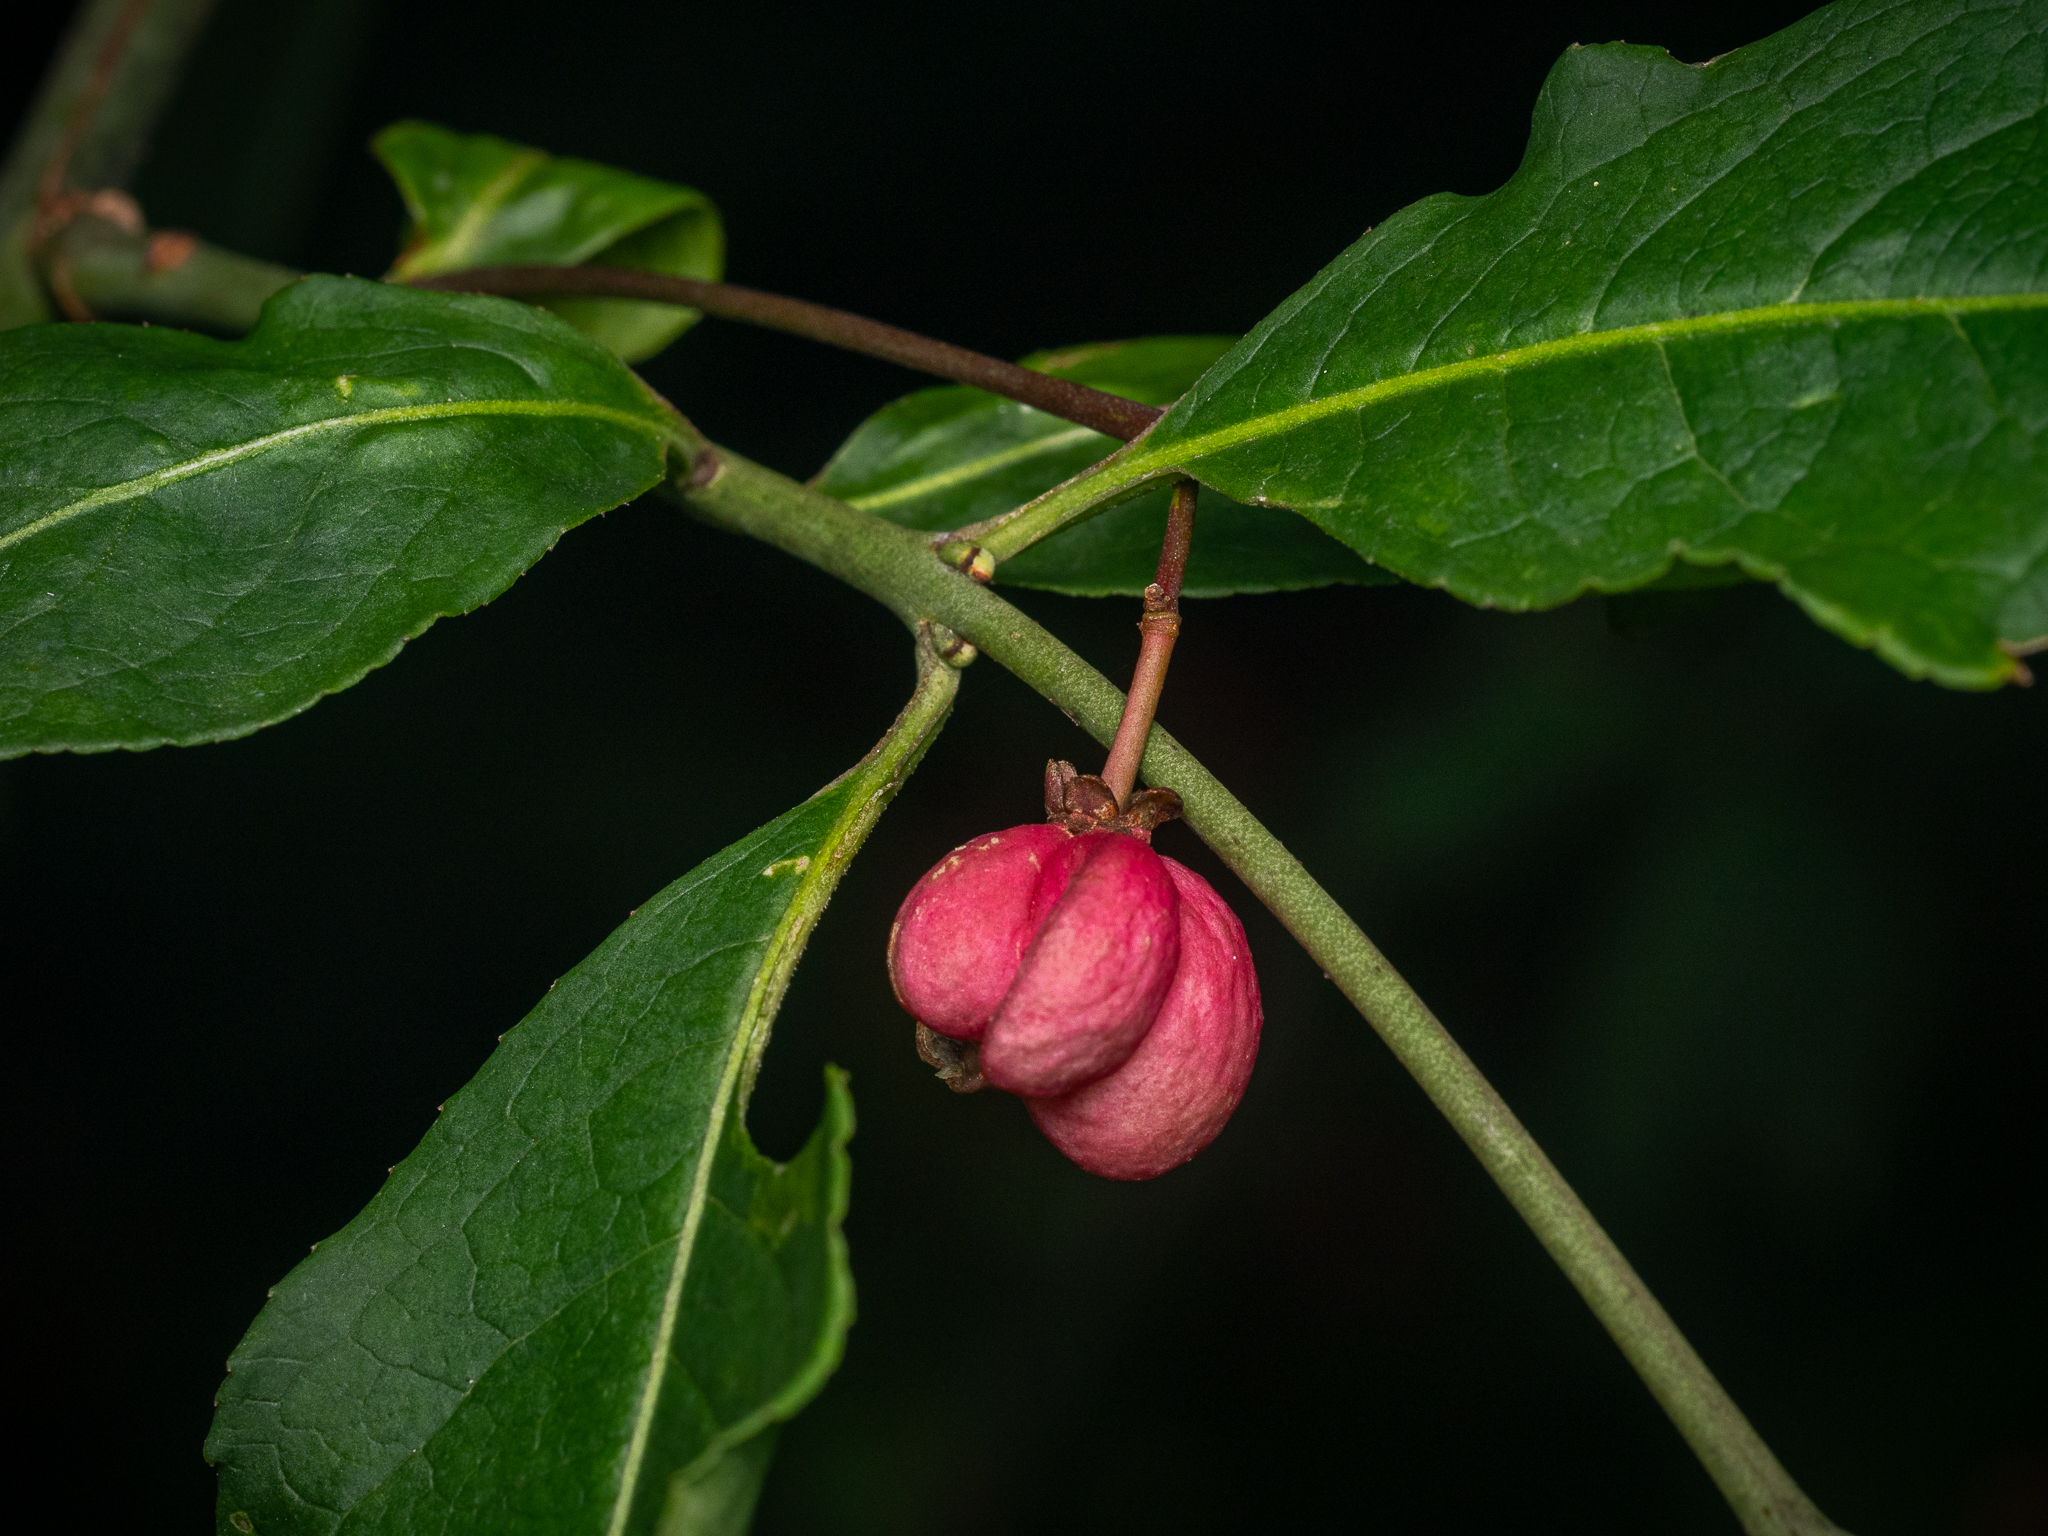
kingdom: Plantae
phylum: Tracheophyta
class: Magnoliopsida
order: Celastrales
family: Celastraceae
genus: Euonymus
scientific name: Euonymus europaeus
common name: Spindle
